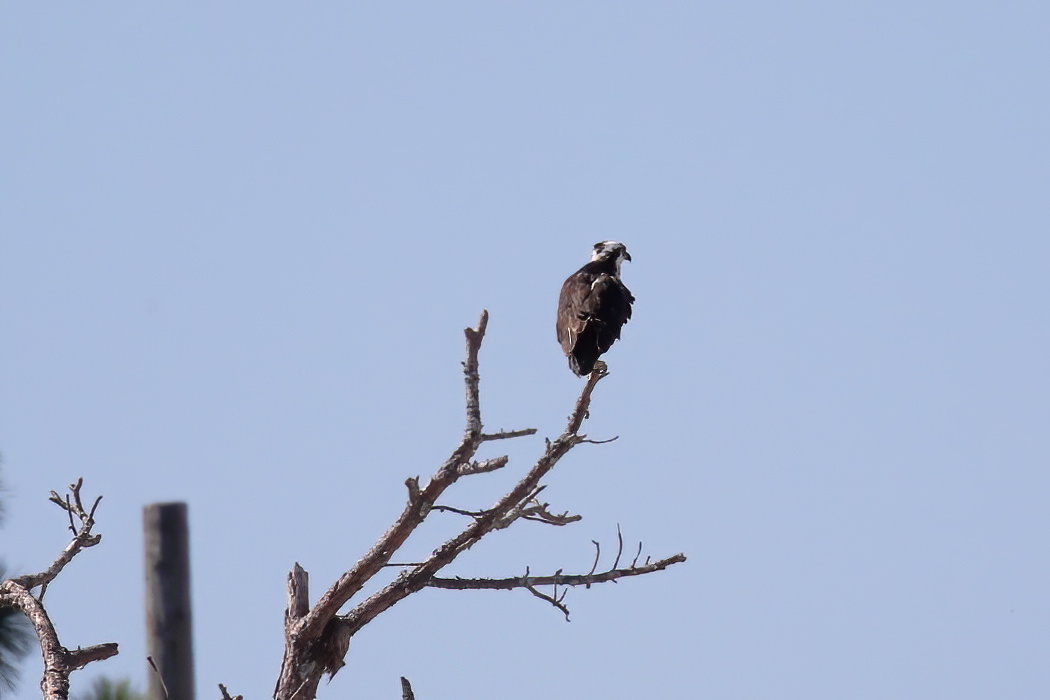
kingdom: Animalia
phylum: Chordata
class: Aves
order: Accipitriformes
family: Pandionidae
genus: Pandion
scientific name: Pandion haliaetus
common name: Osprey
